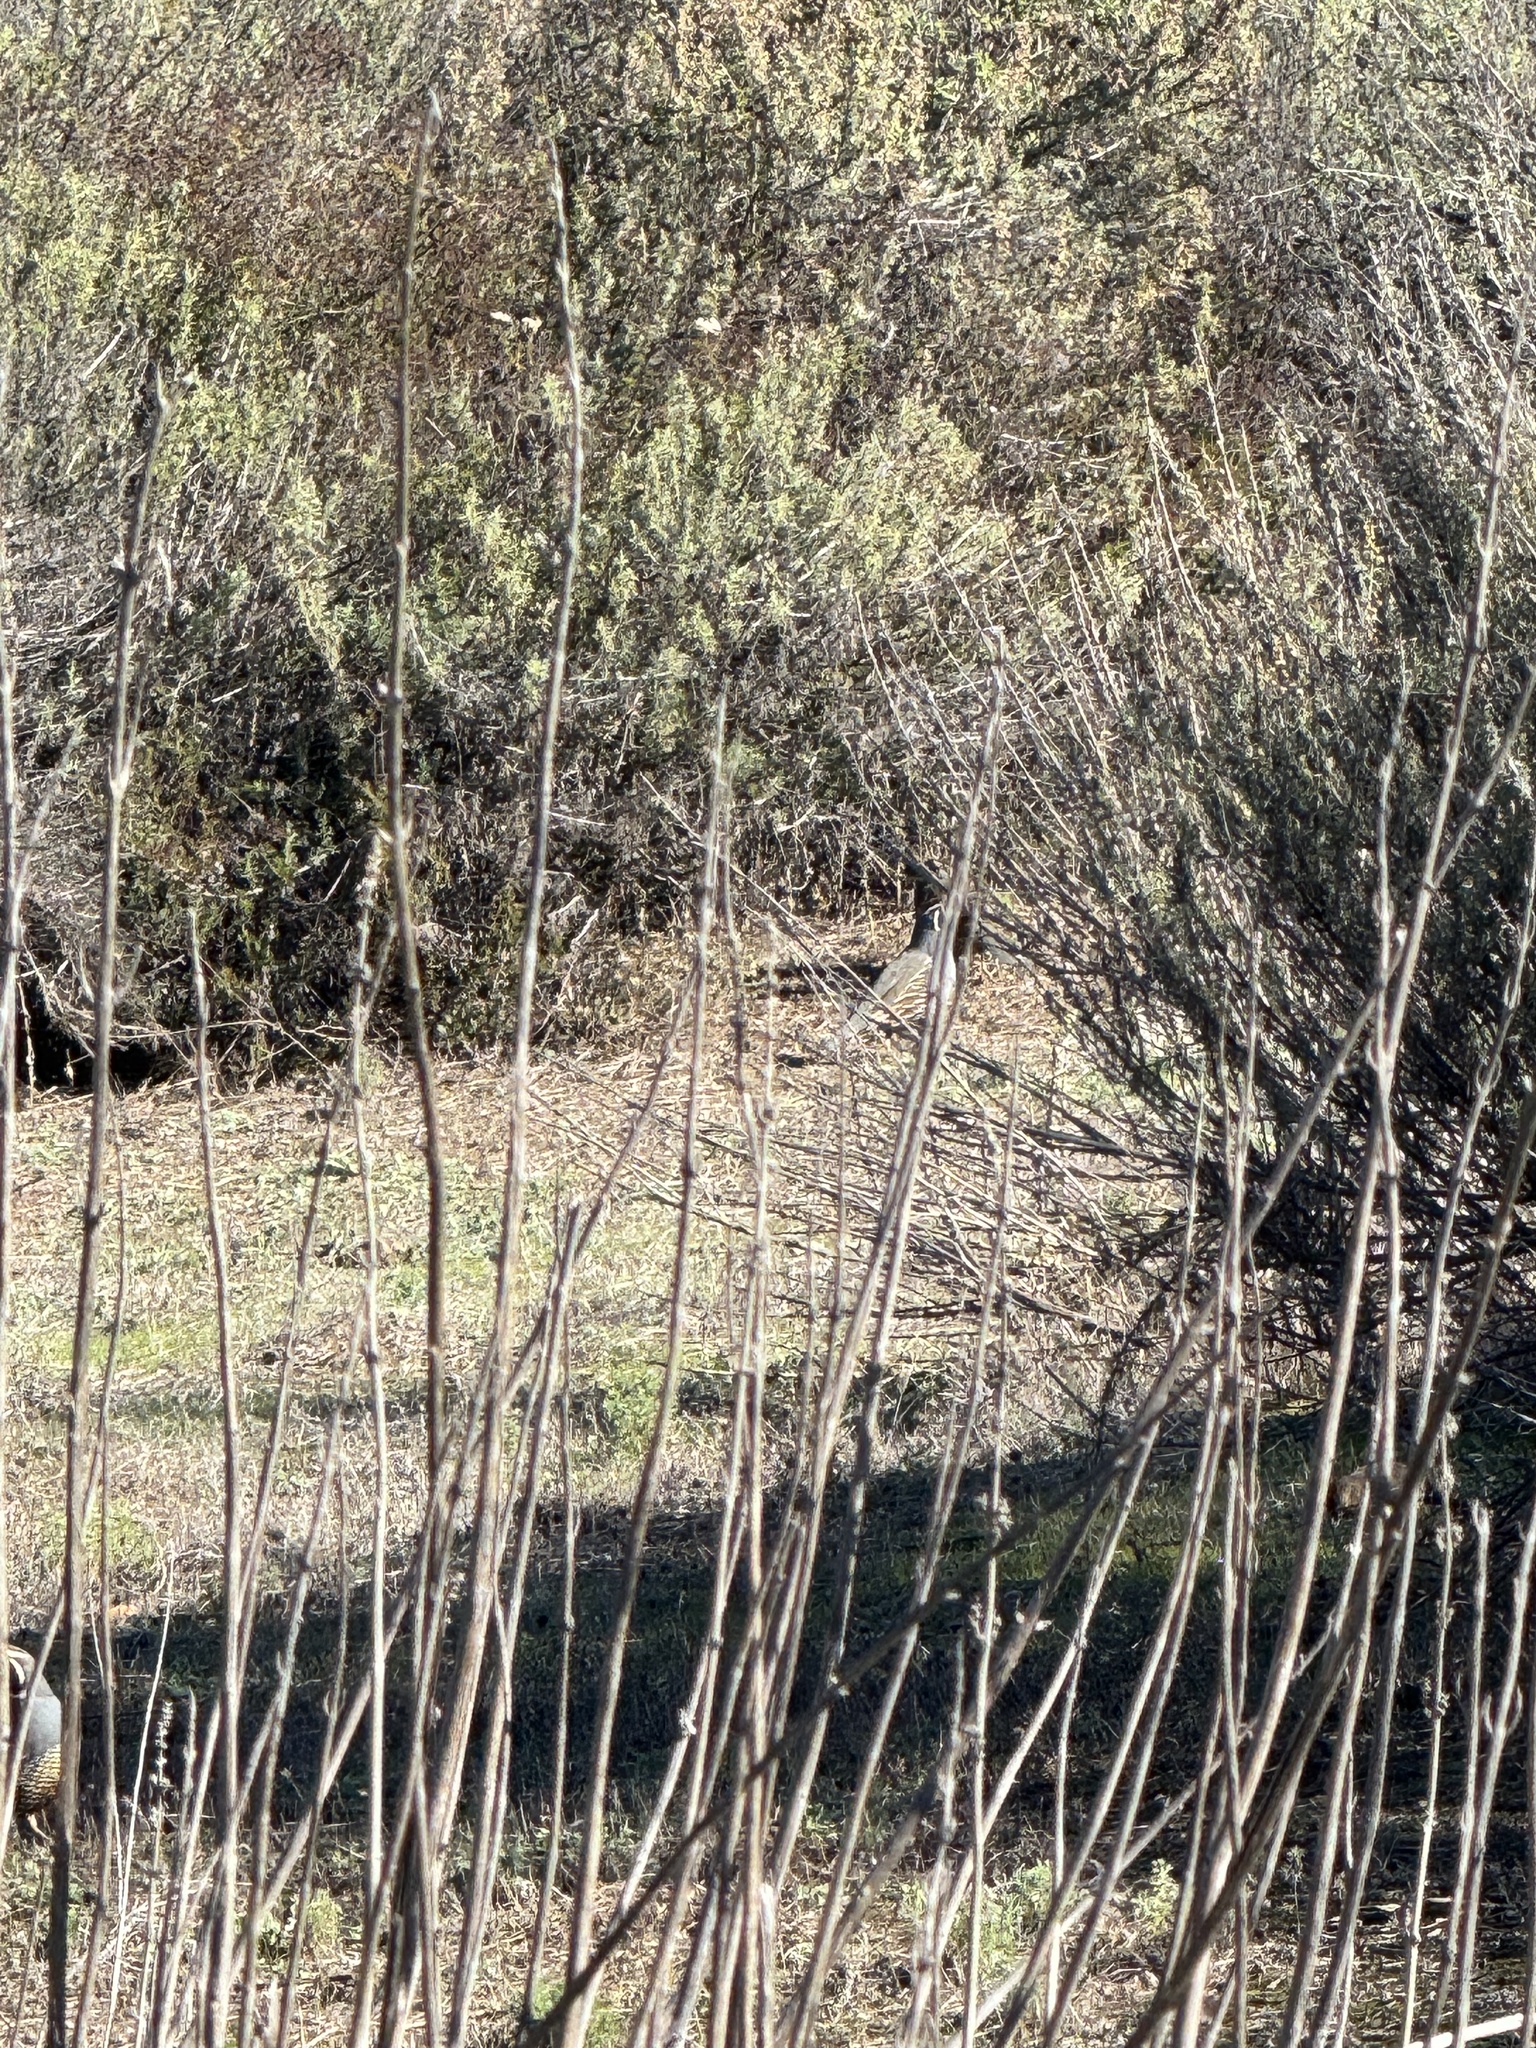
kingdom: Animalia
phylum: Chordata
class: Aves
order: Galliformes
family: Odontophoridae
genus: Callipepla
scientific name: Callipepla californica
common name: California quail
